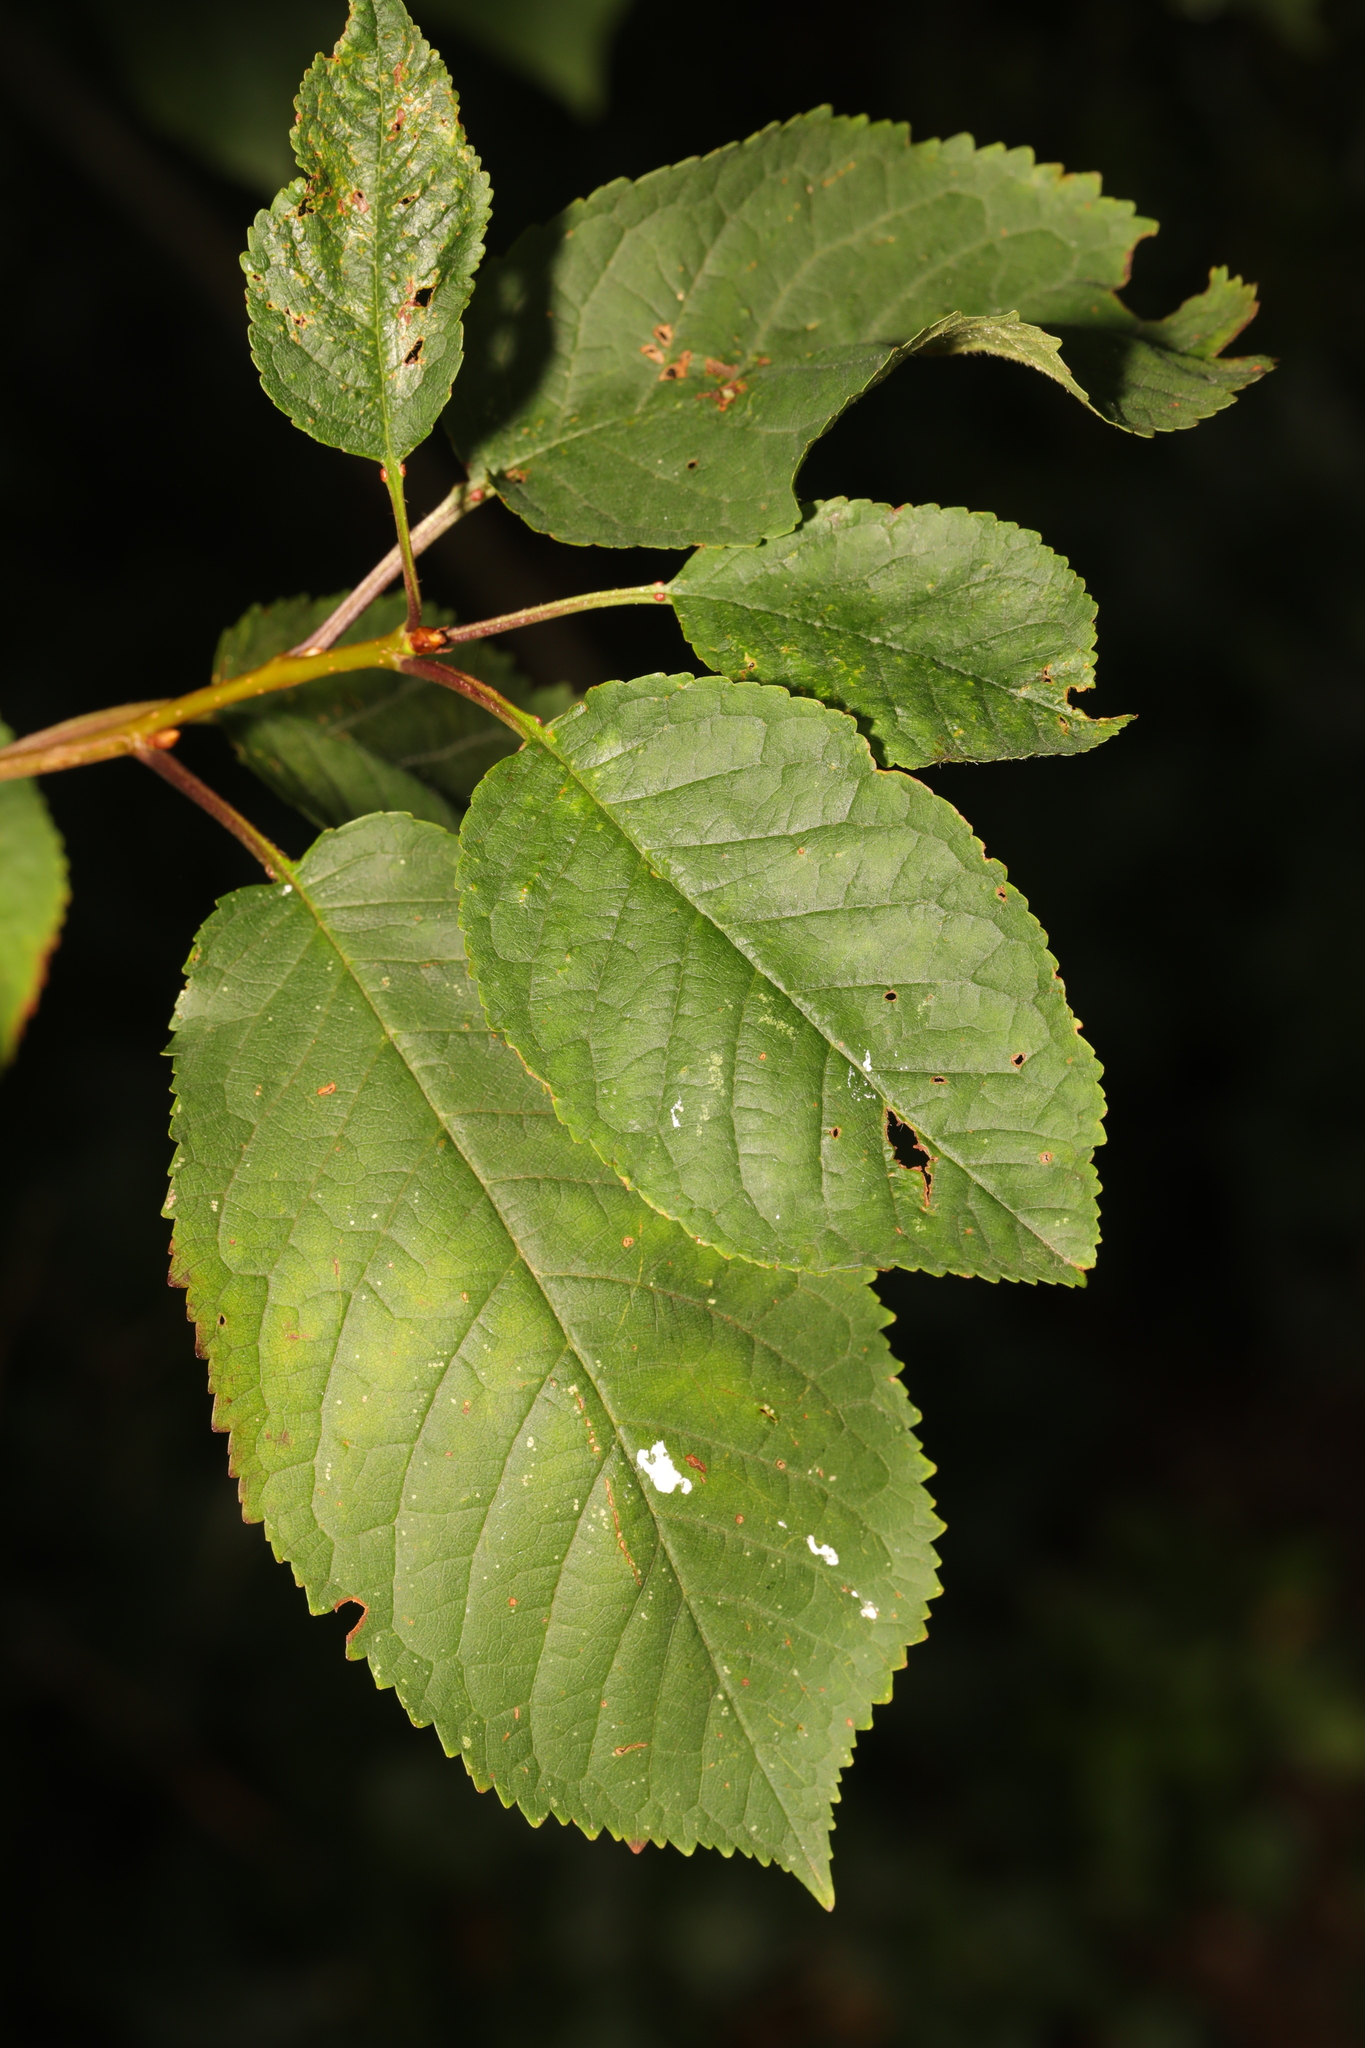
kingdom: Plantae
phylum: Tracheophyta
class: Magnoliopsida
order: Rosales
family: Rosaceae
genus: Prunus
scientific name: Prunus avium
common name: Sweet cherry
